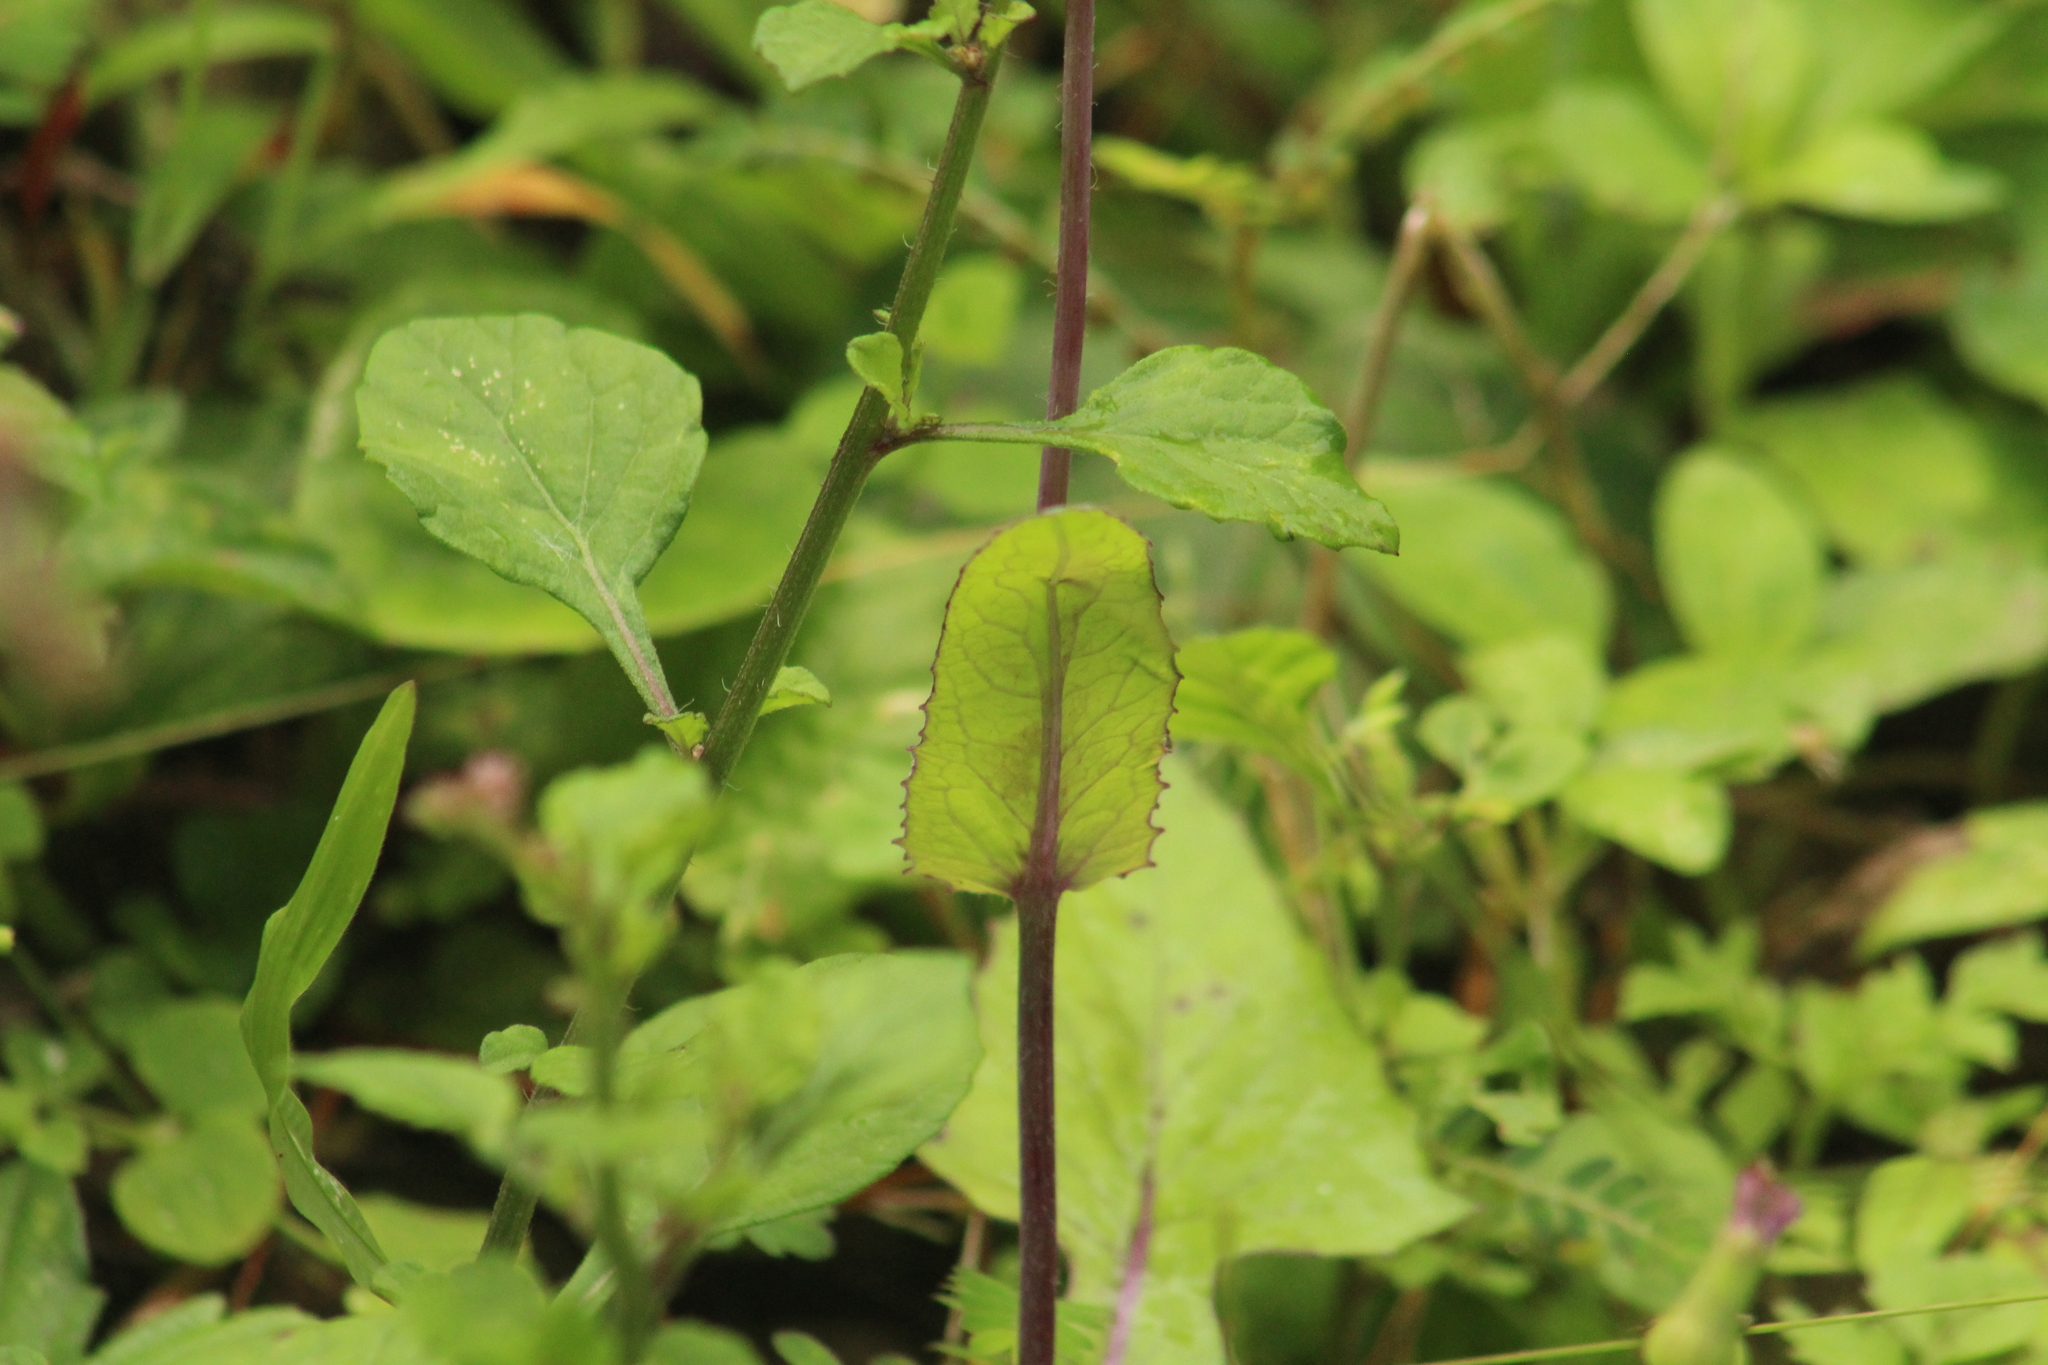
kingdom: Plantae
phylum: Tracheophyta
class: Magnoliopsida
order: Asterales
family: Asteraceae
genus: Emilia
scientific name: Emilia sonchifolia
